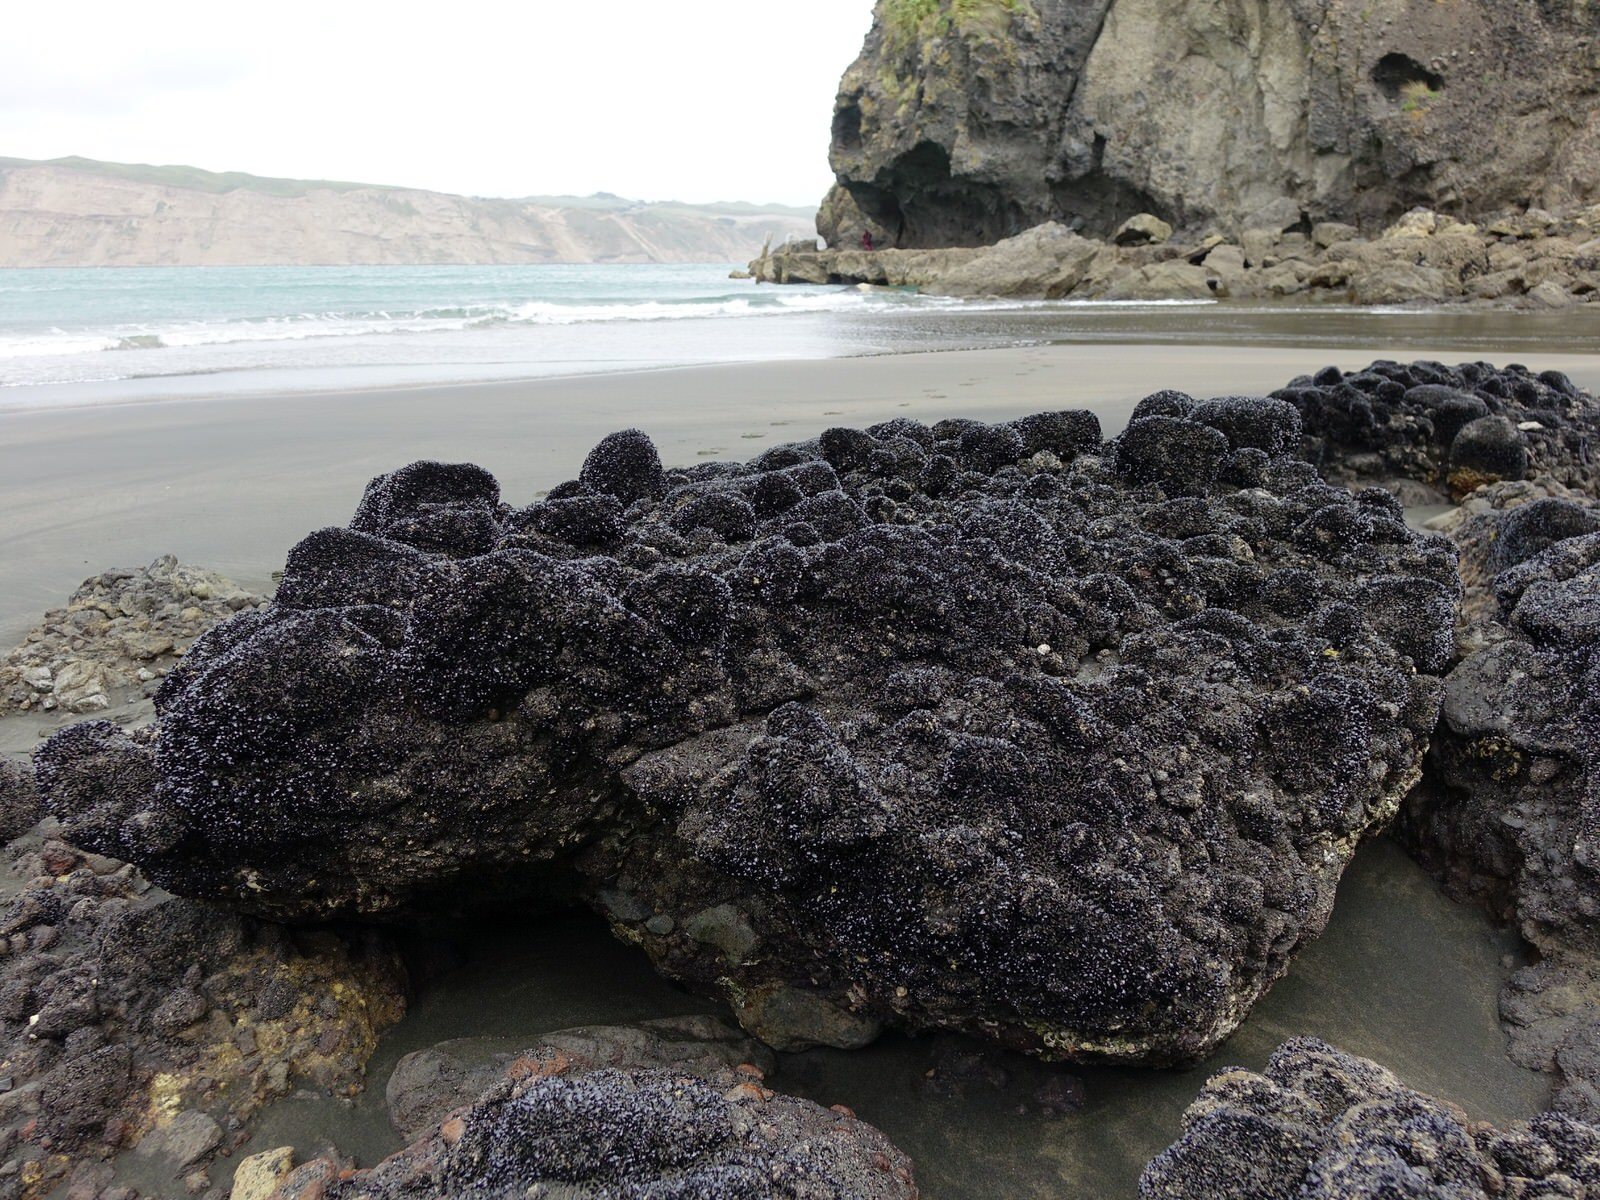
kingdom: Animalia
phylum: Mollusca
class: Bivalvia
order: Mytilida
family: Mytilidae
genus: Xenostrobus
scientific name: Xenostrobus neozelanicus
